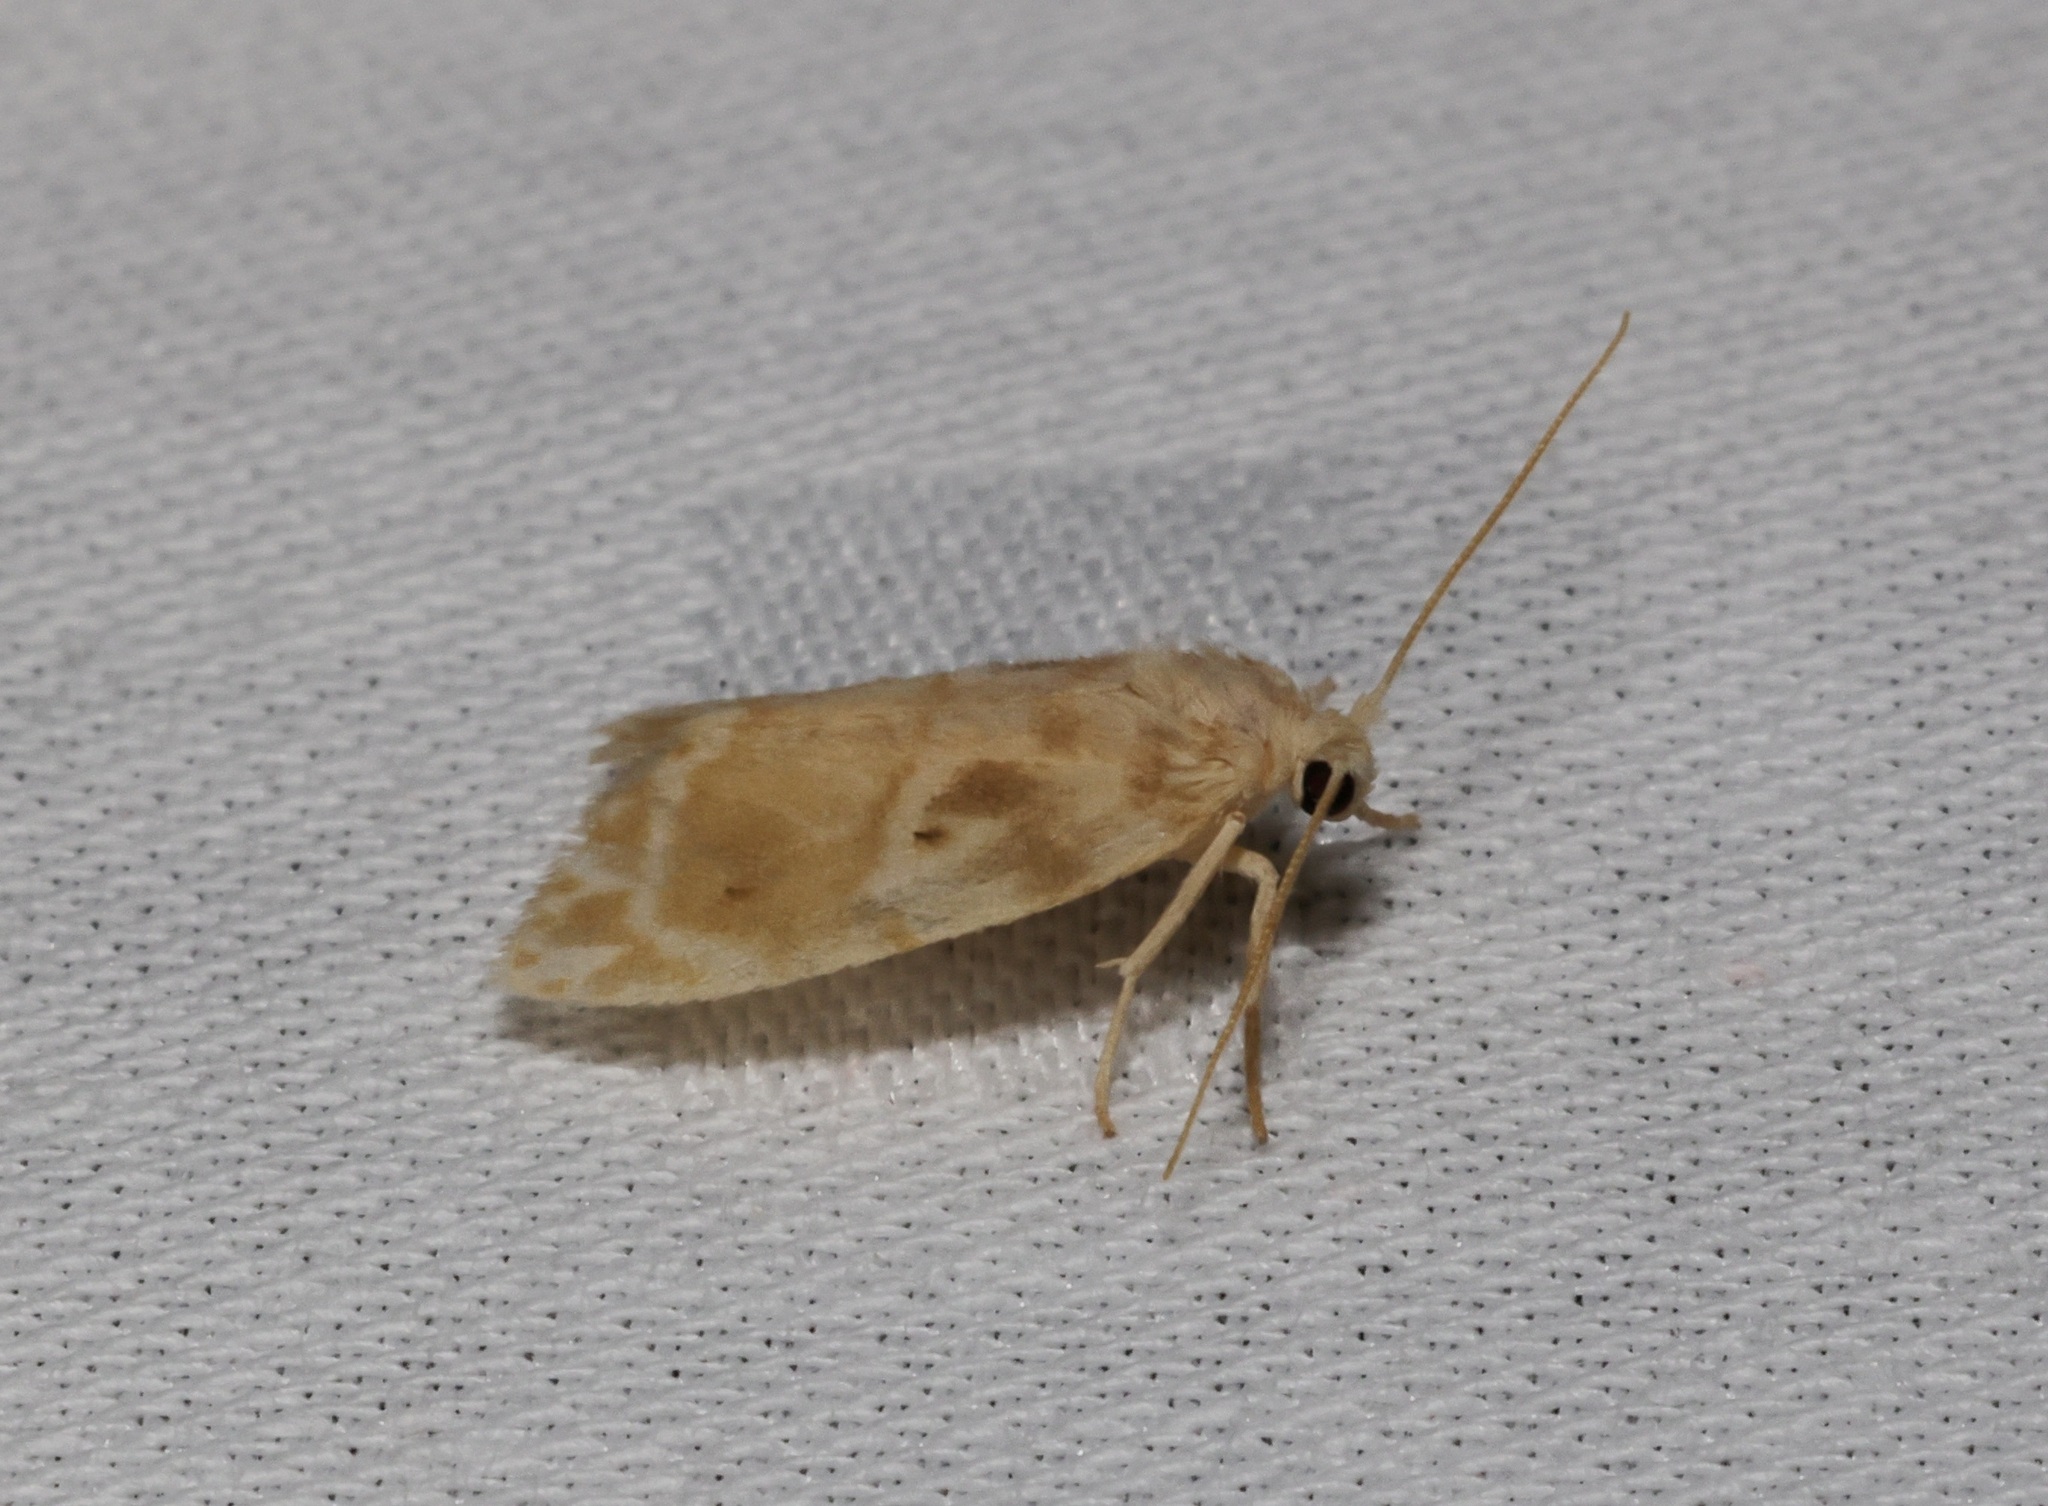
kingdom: Animalia
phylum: Arthropoda
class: Insecta
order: Lepidoptera
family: Erebidae
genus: Schistophleps
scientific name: Schistophleps bipuncta
